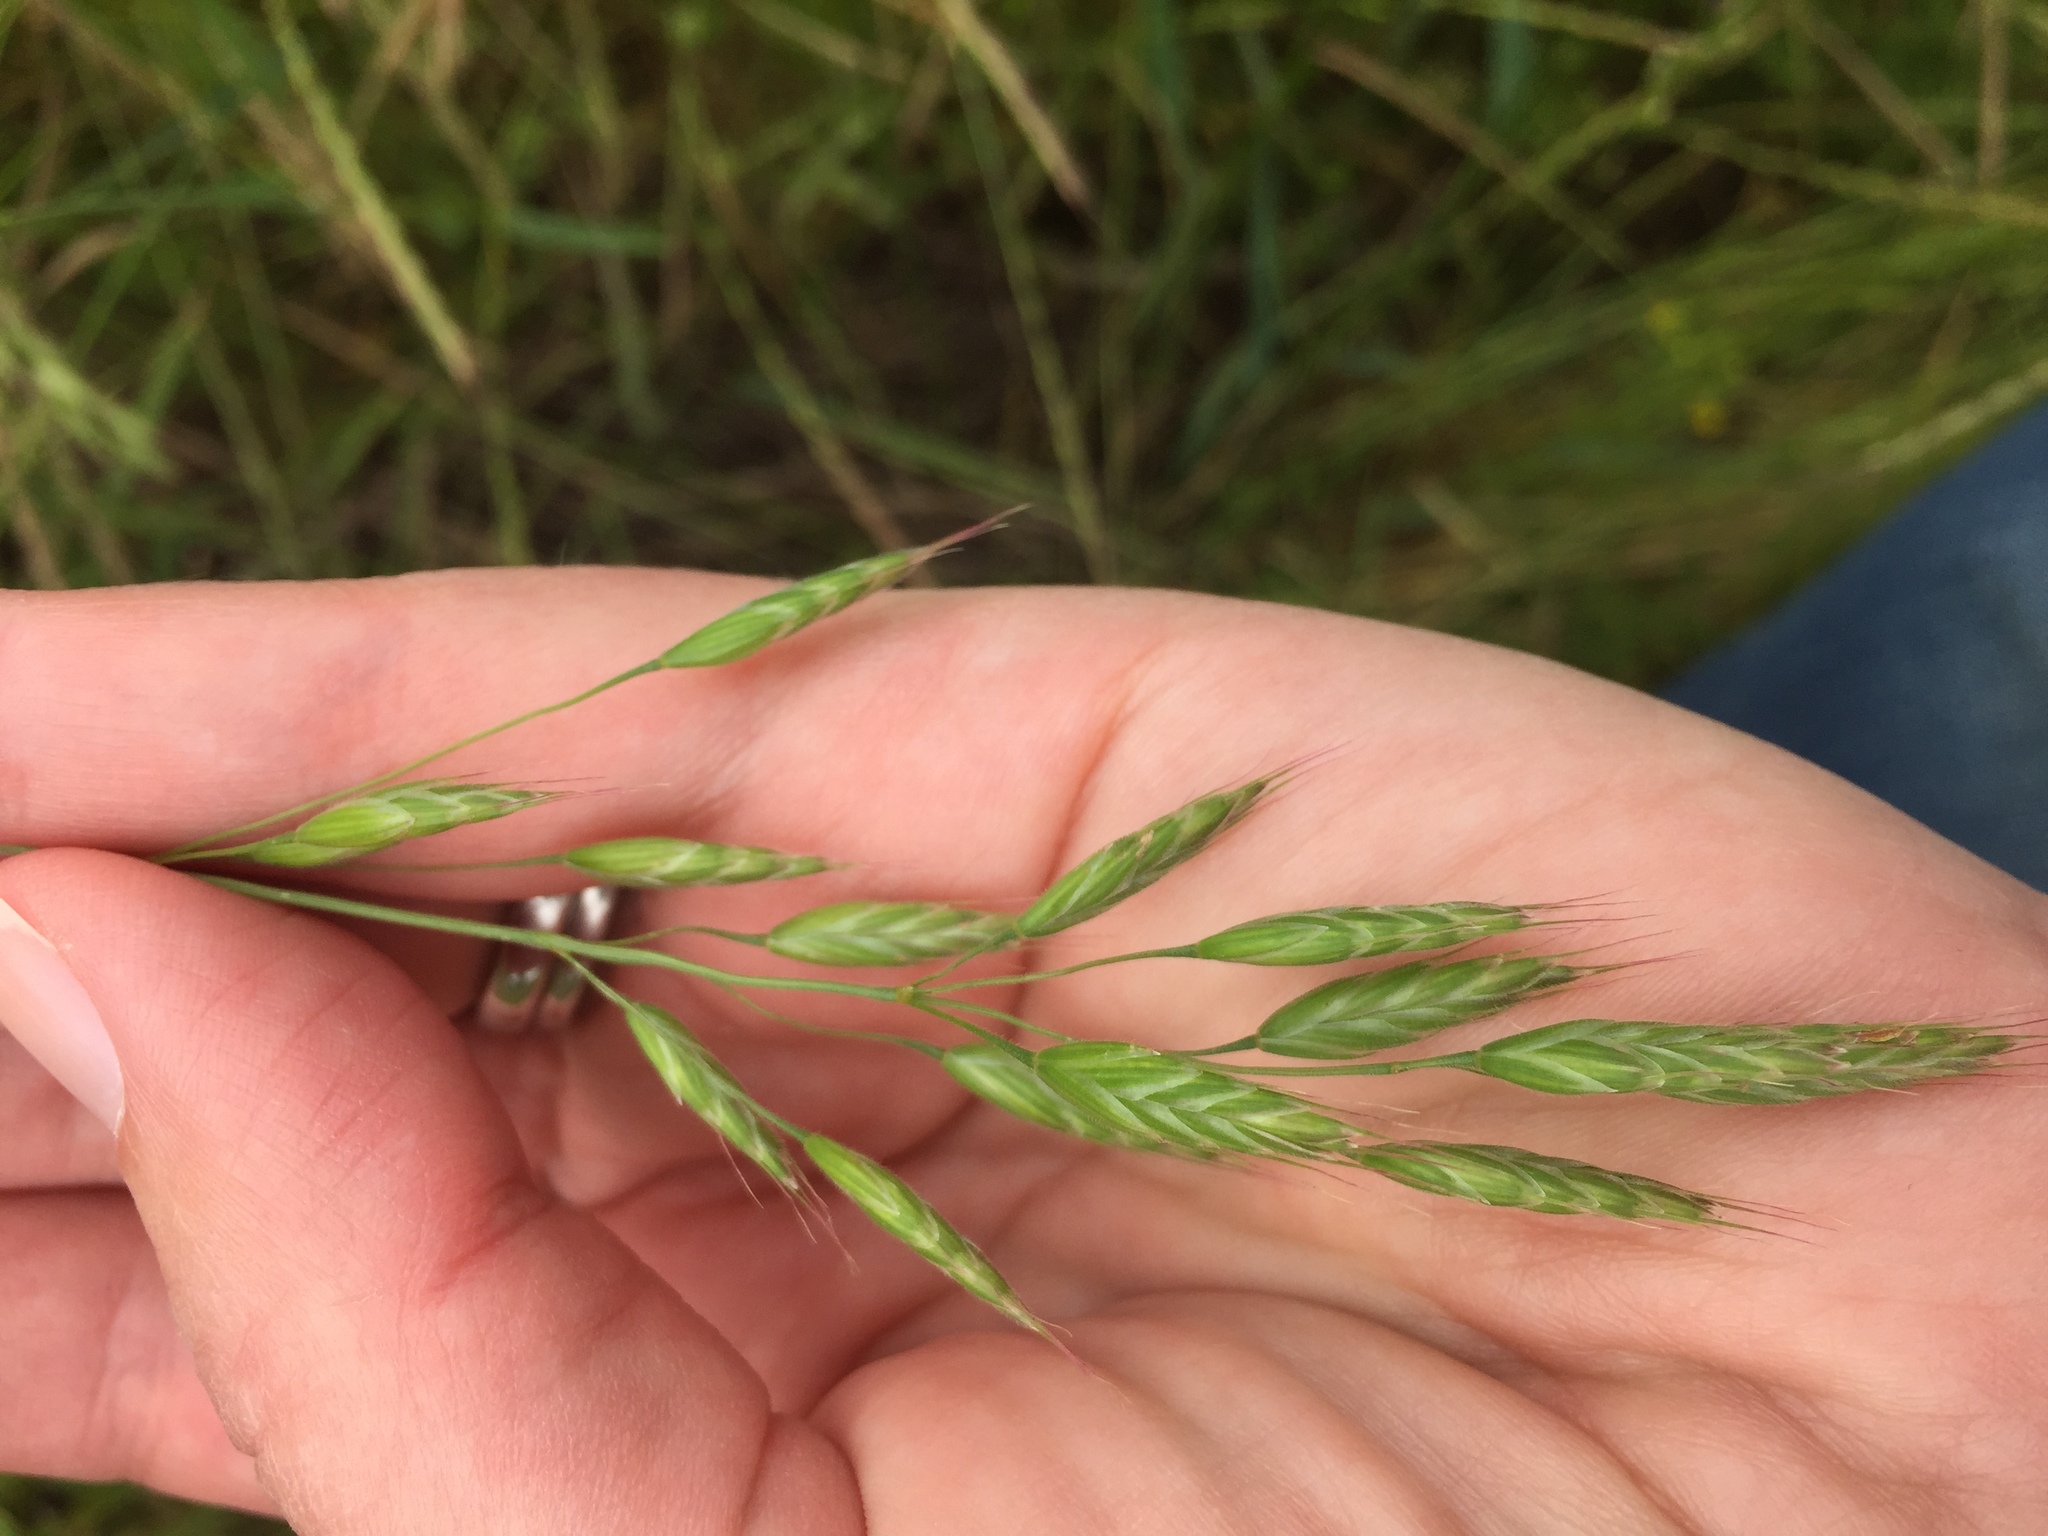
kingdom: Plantae
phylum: Tracheophyta
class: Liliopsida
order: Poales
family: Poaceae
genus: Bromus
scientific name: Bromus commutatus
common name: Meadow brome
